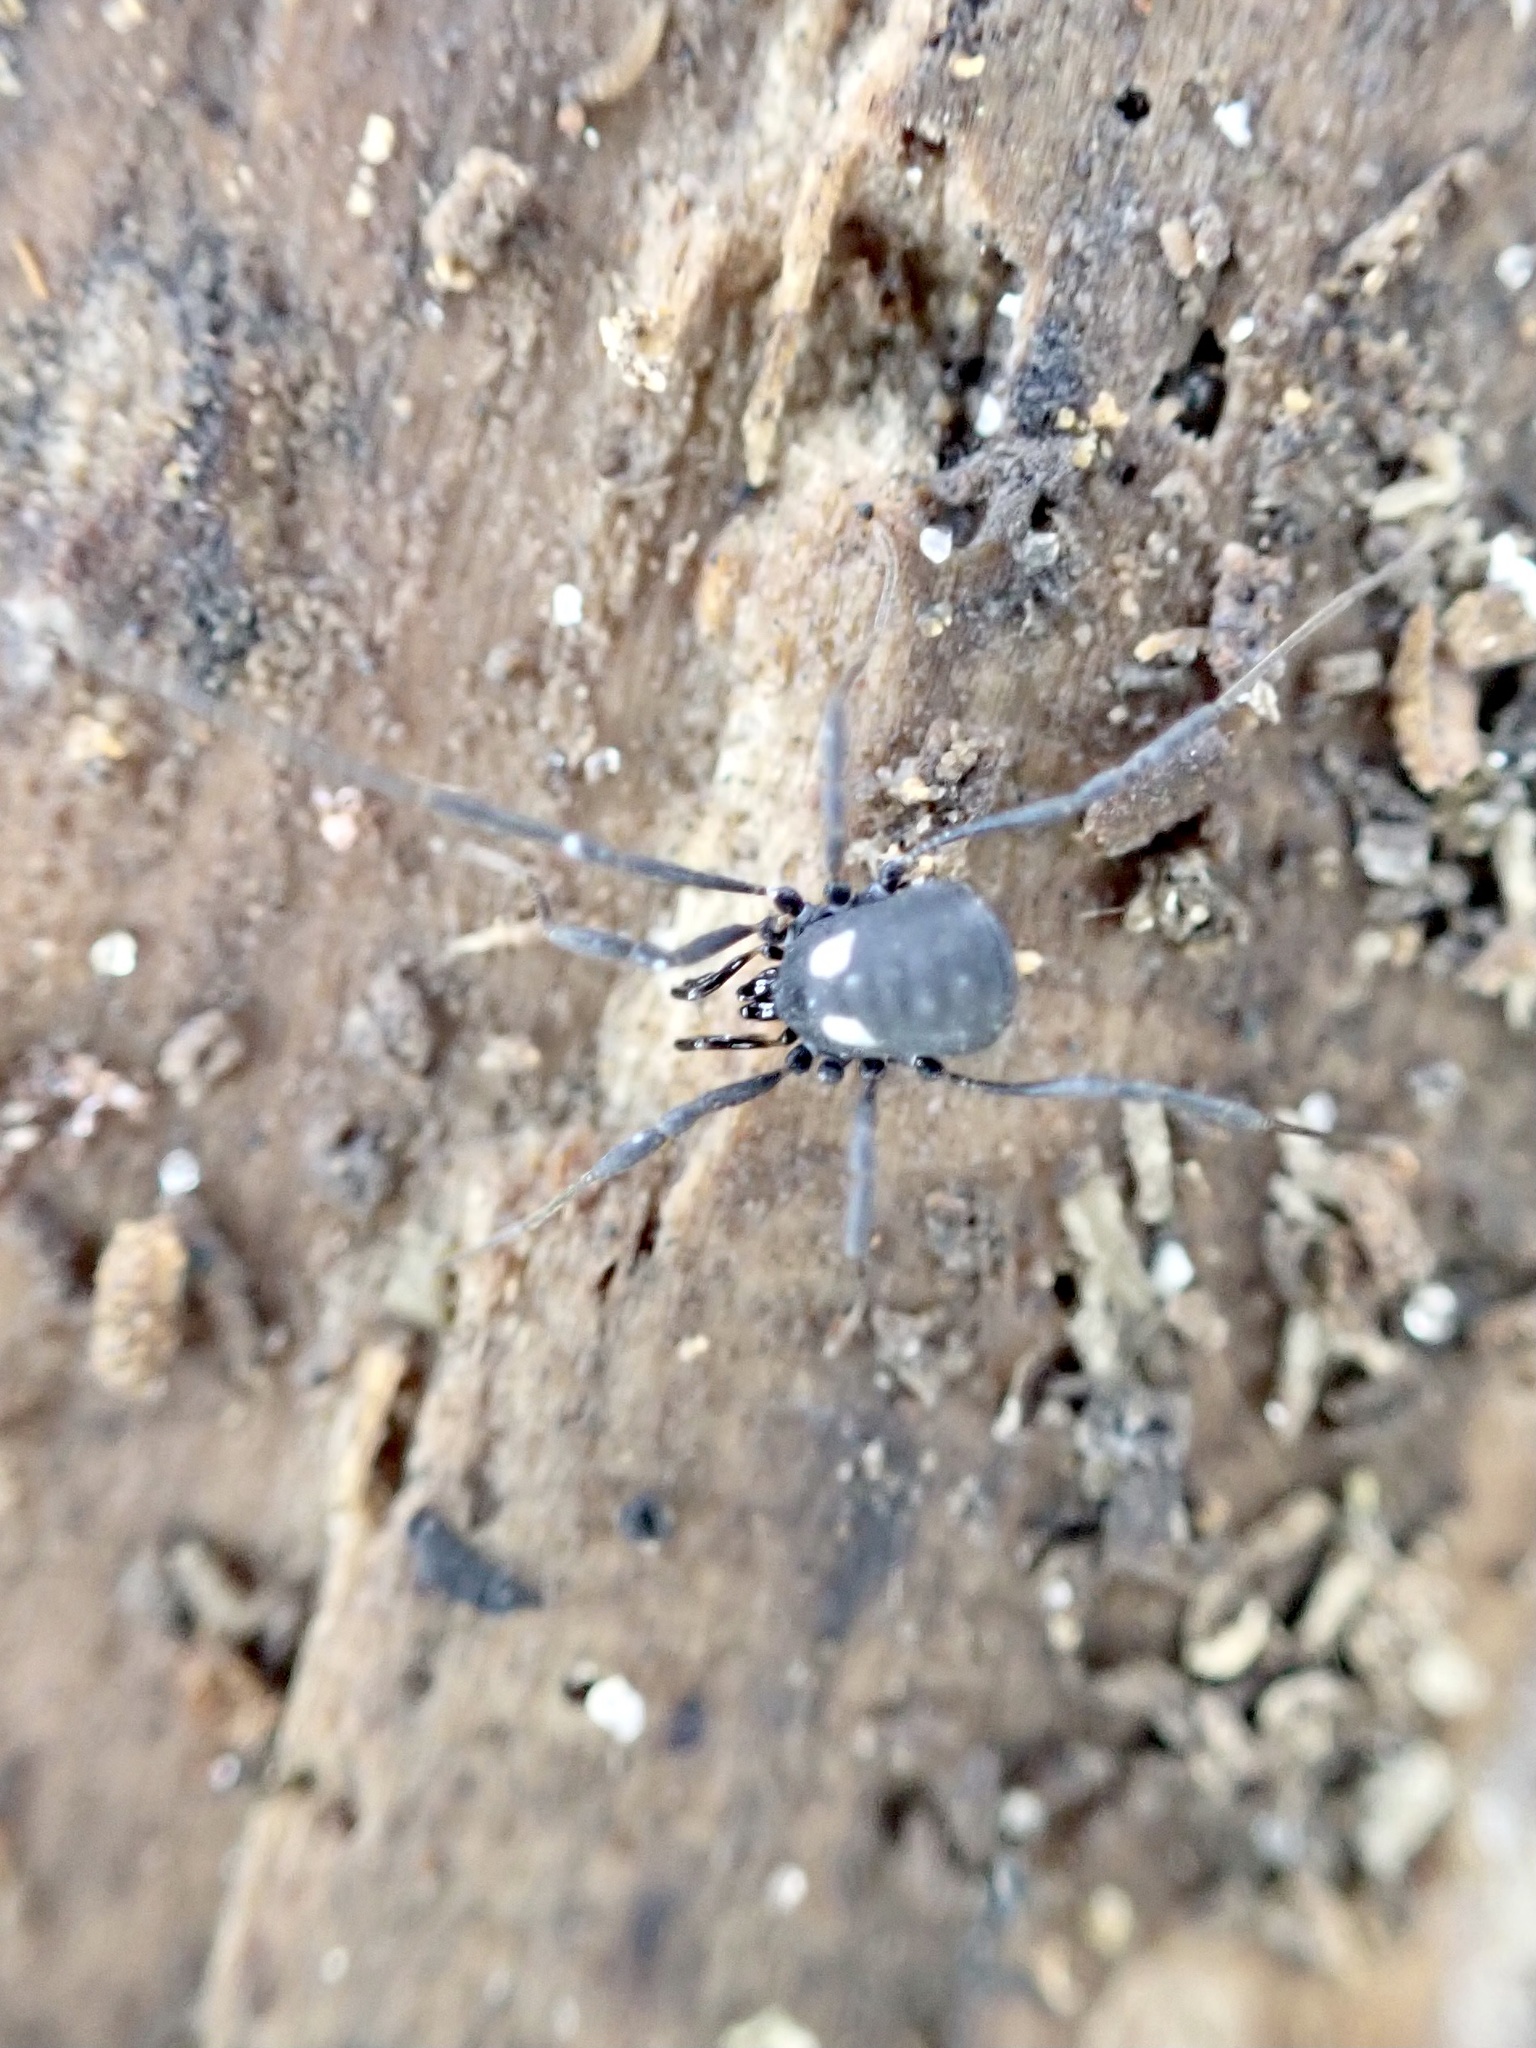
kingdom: Animalia
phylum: Arthropoda
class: Arachnida
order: Opiliones
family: Nemastomatidae
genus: Nemastoma
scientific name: Nemastoma lugubre
